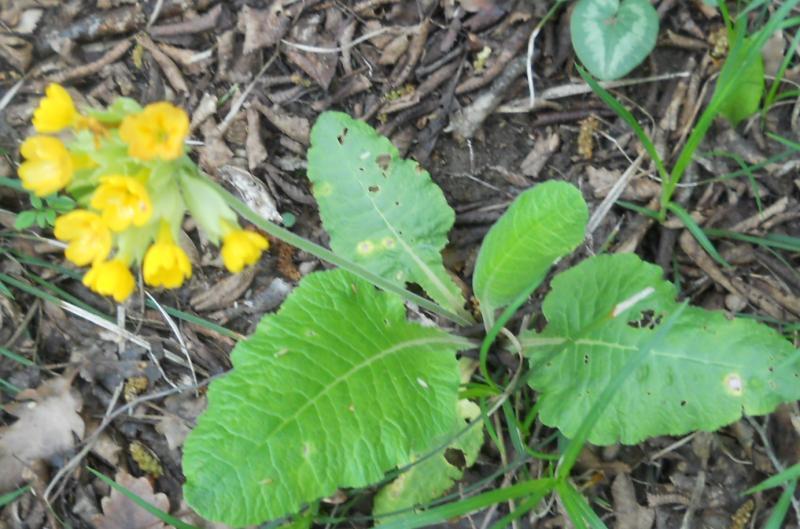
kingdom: Plantae
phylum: Tracheophyta
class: Magnoliopsida
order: Ericales
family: Primulaceae
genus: Primula
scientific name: Primula veris
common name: Cowslip
